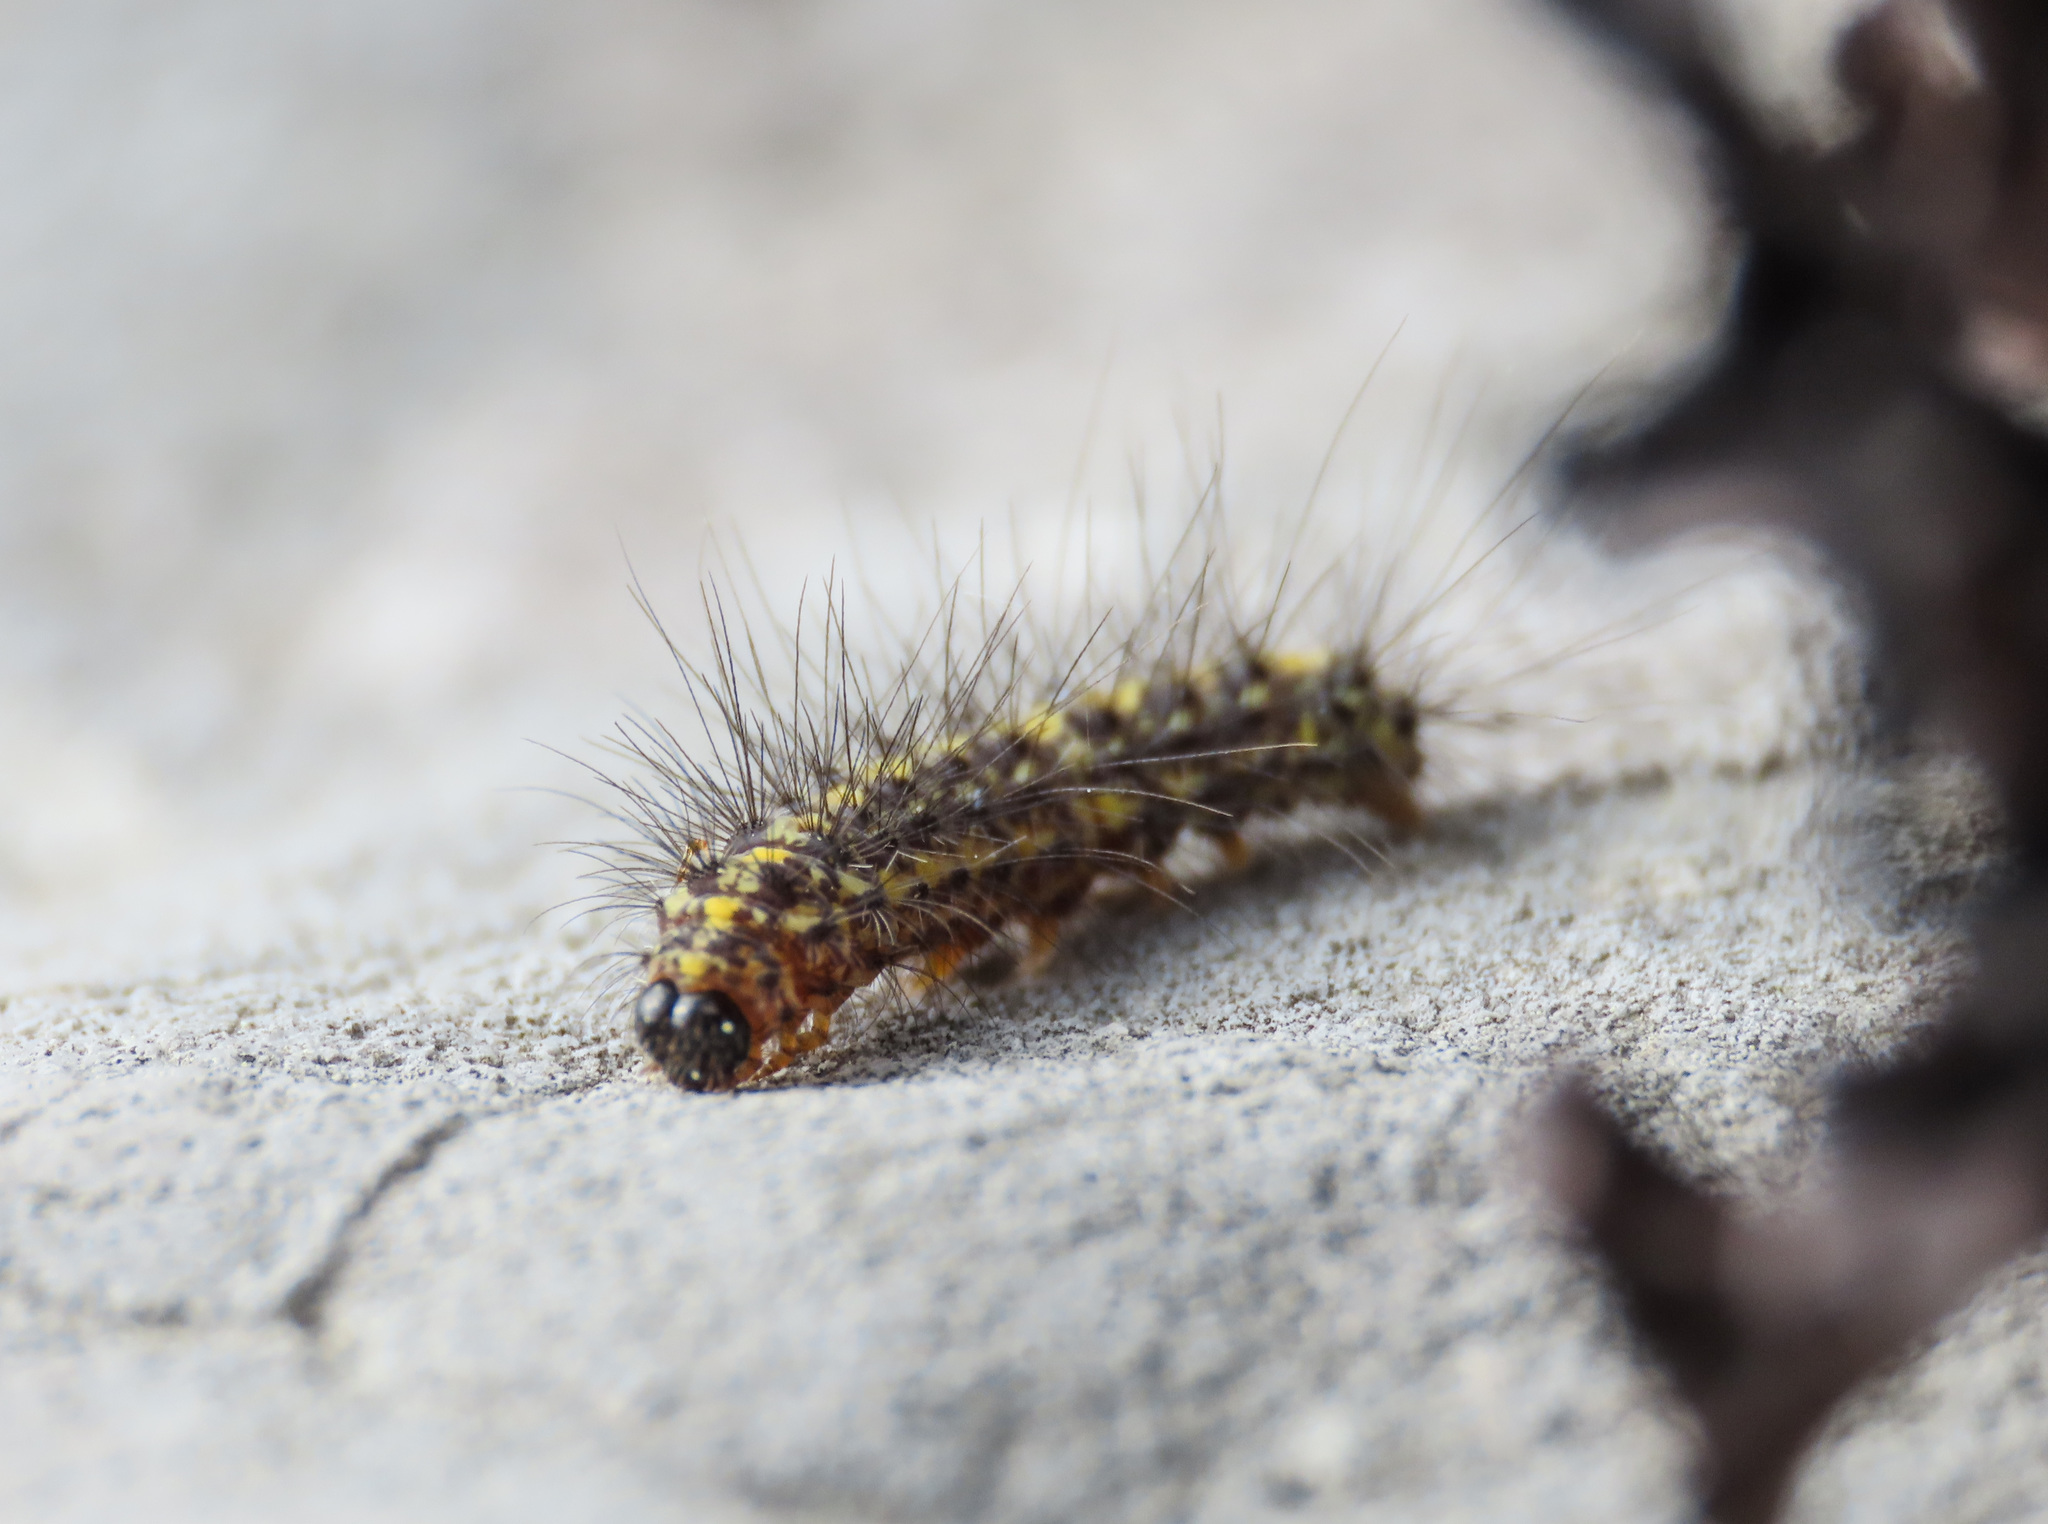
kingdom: Animalia
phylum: Arthropoda
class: Insecta
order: Lepidoptera
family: Erebidae
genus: Setina
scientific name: Setina irrorella
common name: Dew moth
